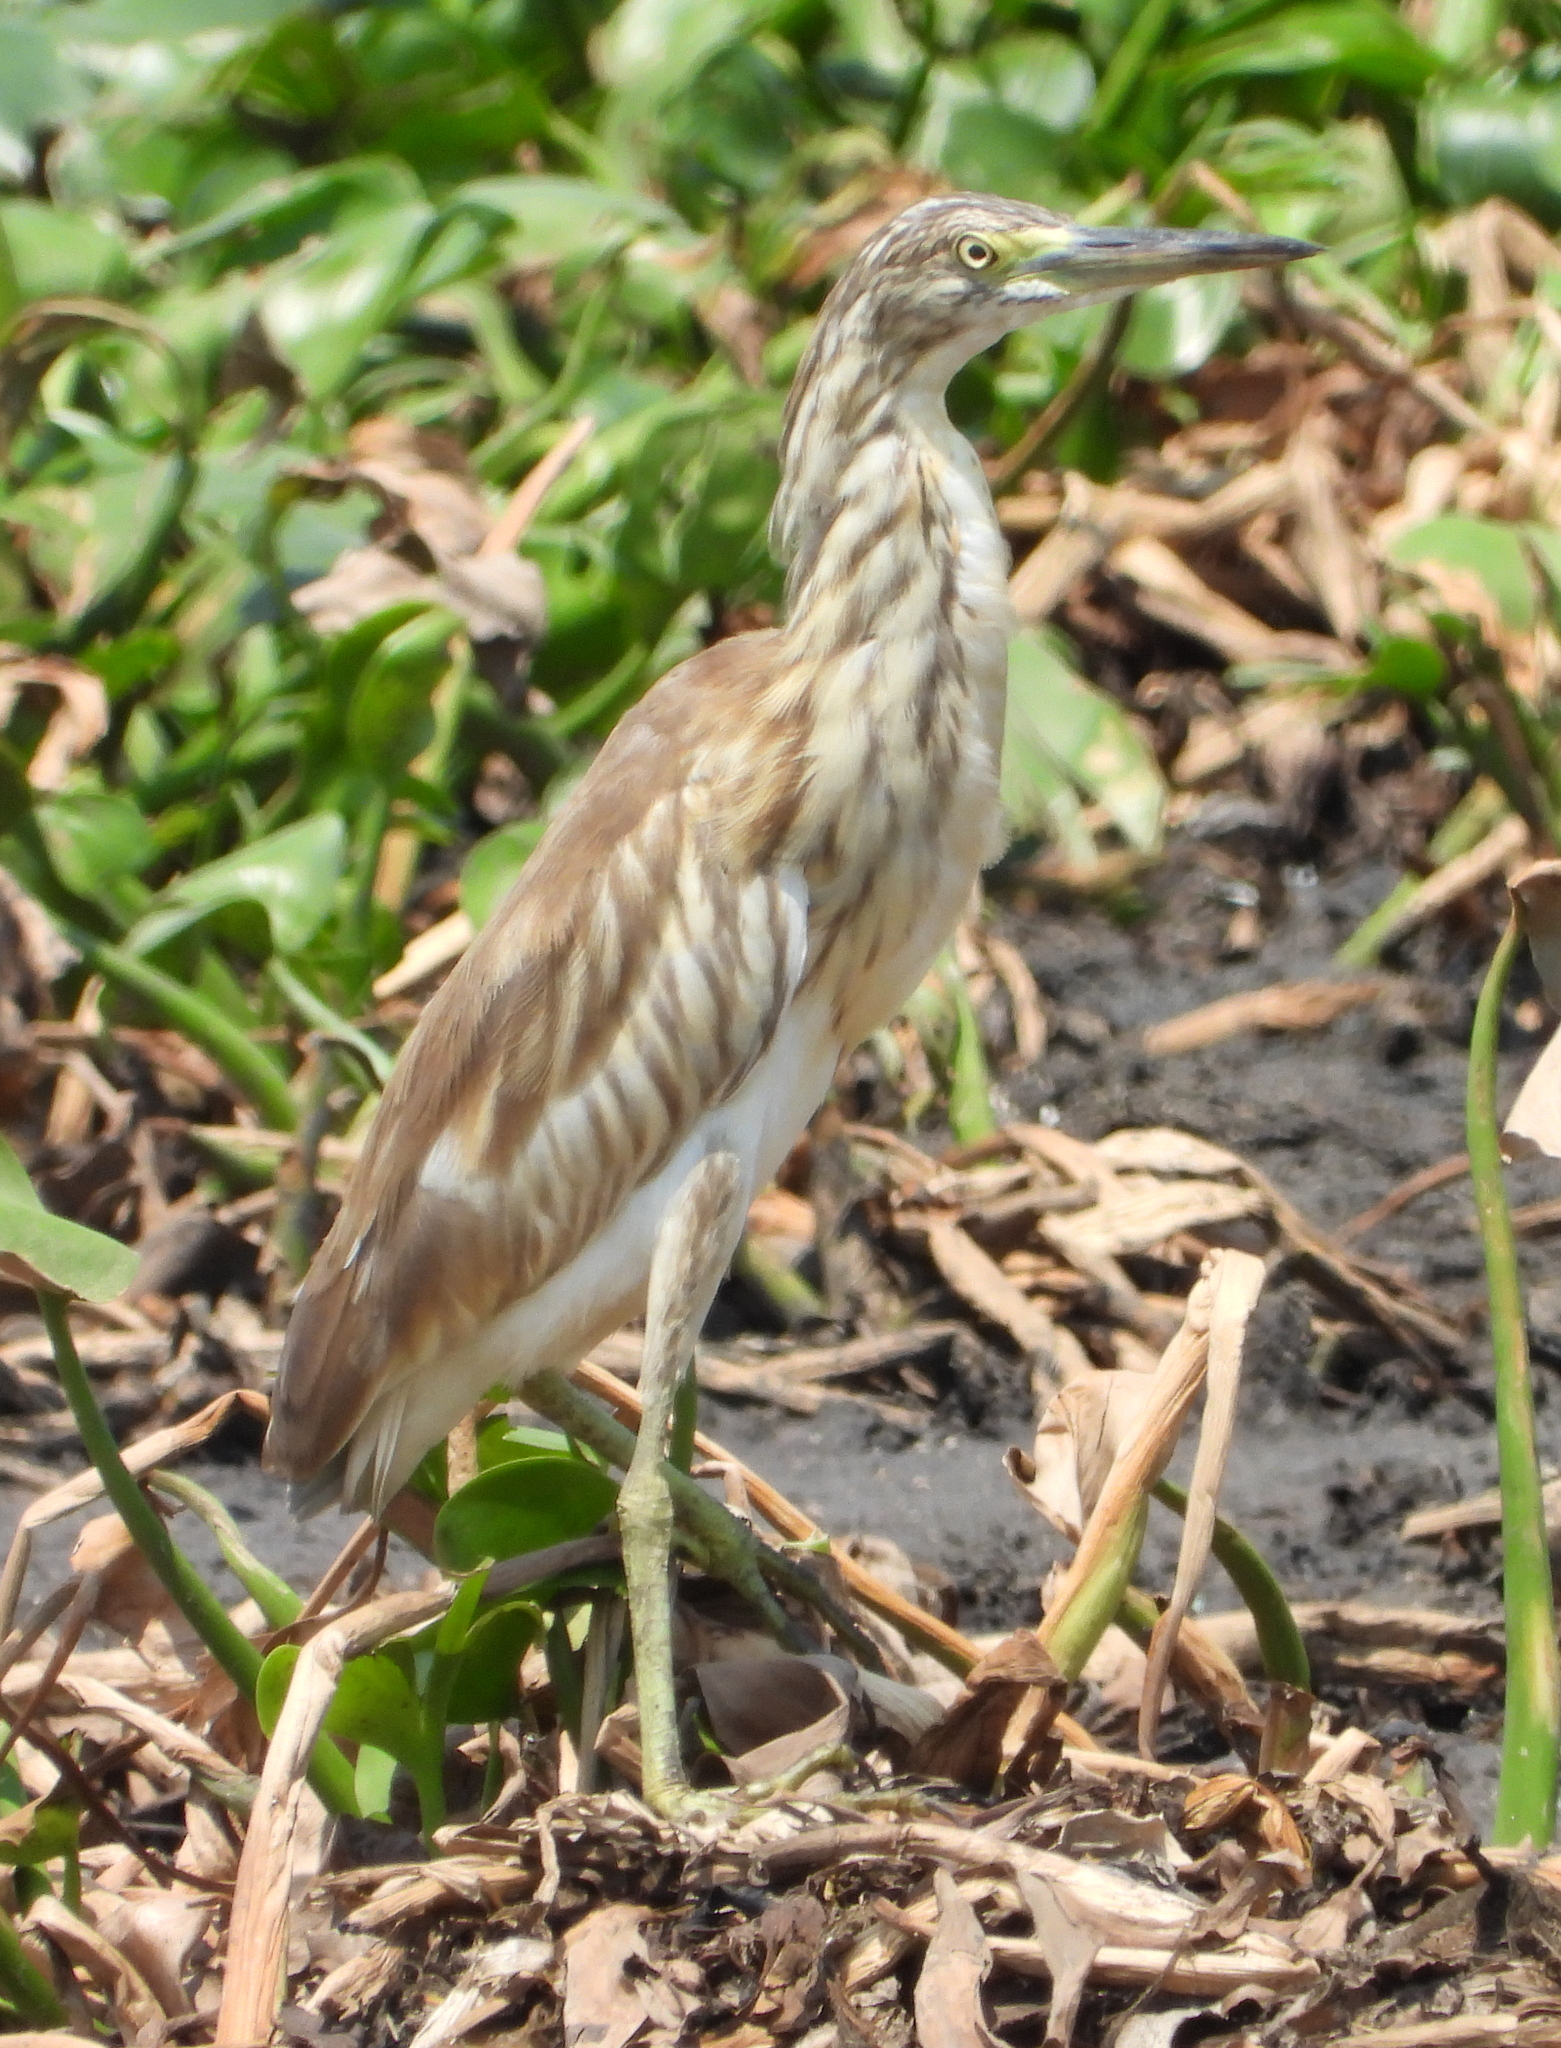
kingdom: Animalia
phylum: Chordata
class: Aves
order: Pelecaniformes
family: Ardeidae
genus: Ardeola
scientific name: Ardeola ralloides
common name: Squacco heron
